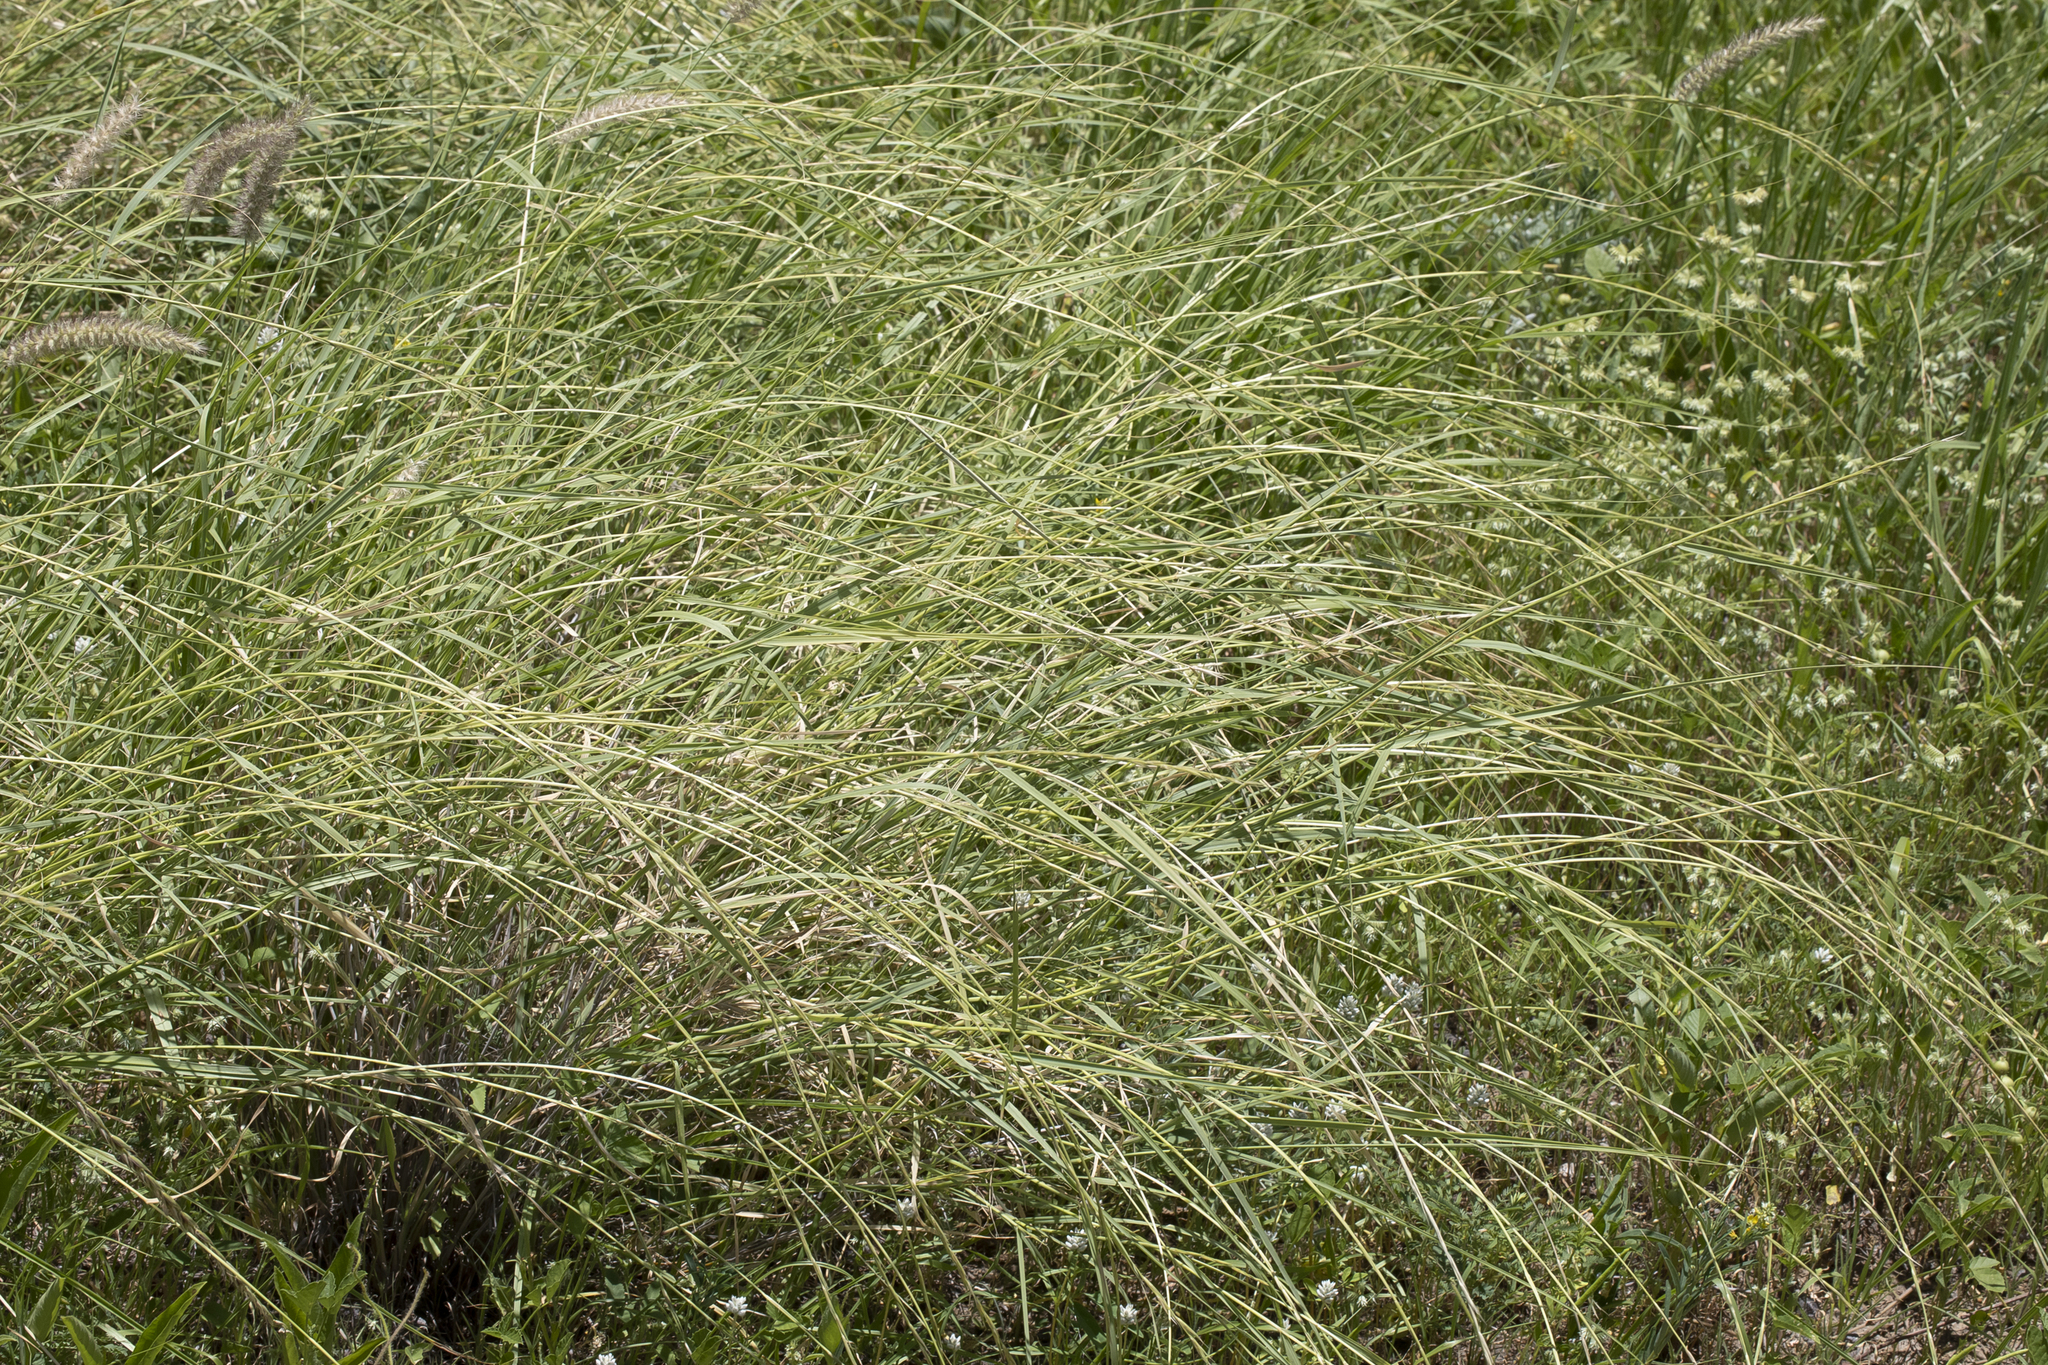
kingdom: Plantae
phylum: Tracheophyta
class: Liliopsida
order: Poales
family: Poaceae
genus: Astrebla
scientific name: Astrebla elymoides
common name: Hoop mitchell grass
